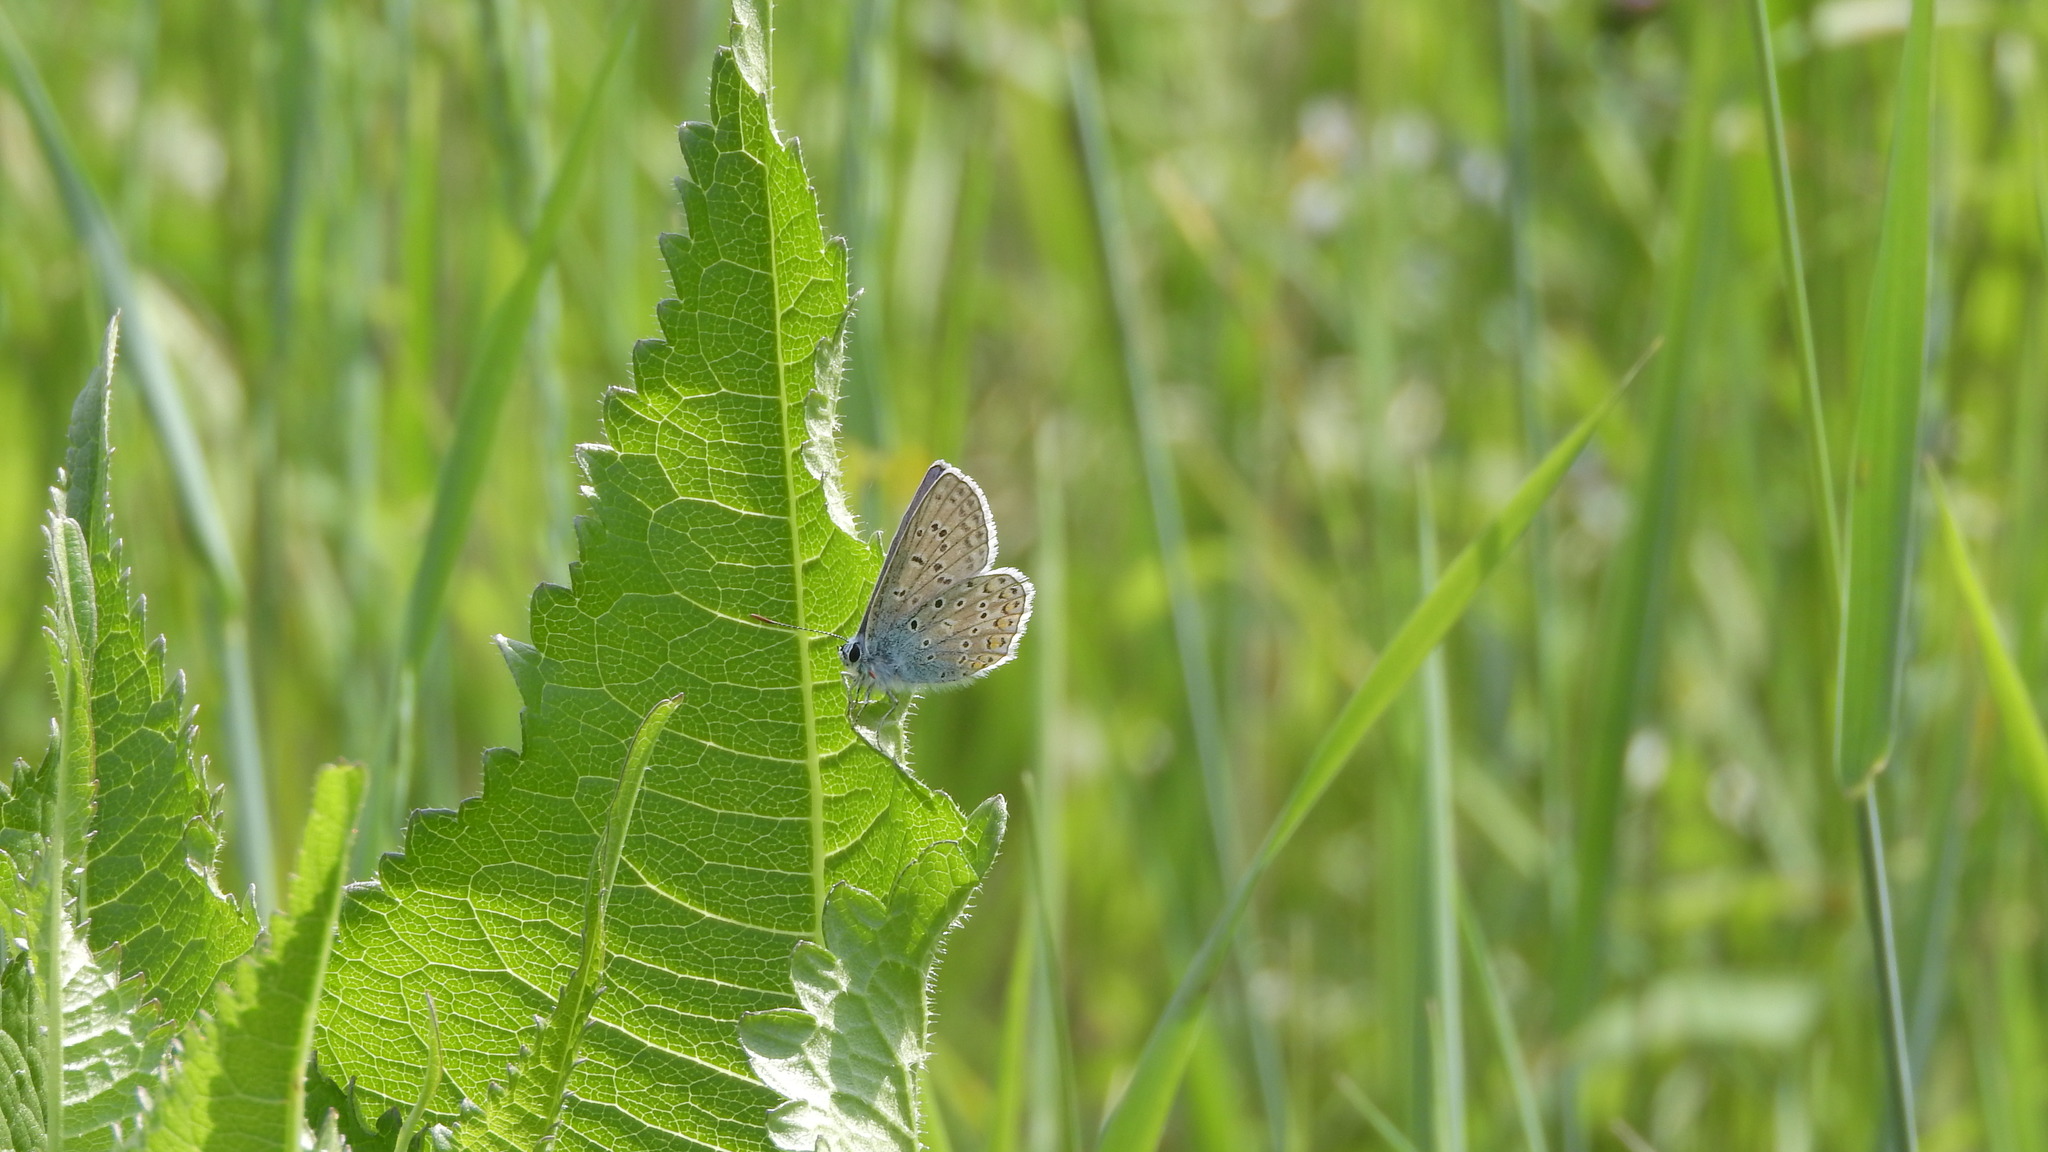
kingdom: Animalia
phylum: Arthropoda
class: Insecta
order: Lepidoptera
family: Lycaenidae
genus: Polyommatus
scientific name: Polyommatus icarus
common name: Common blue
